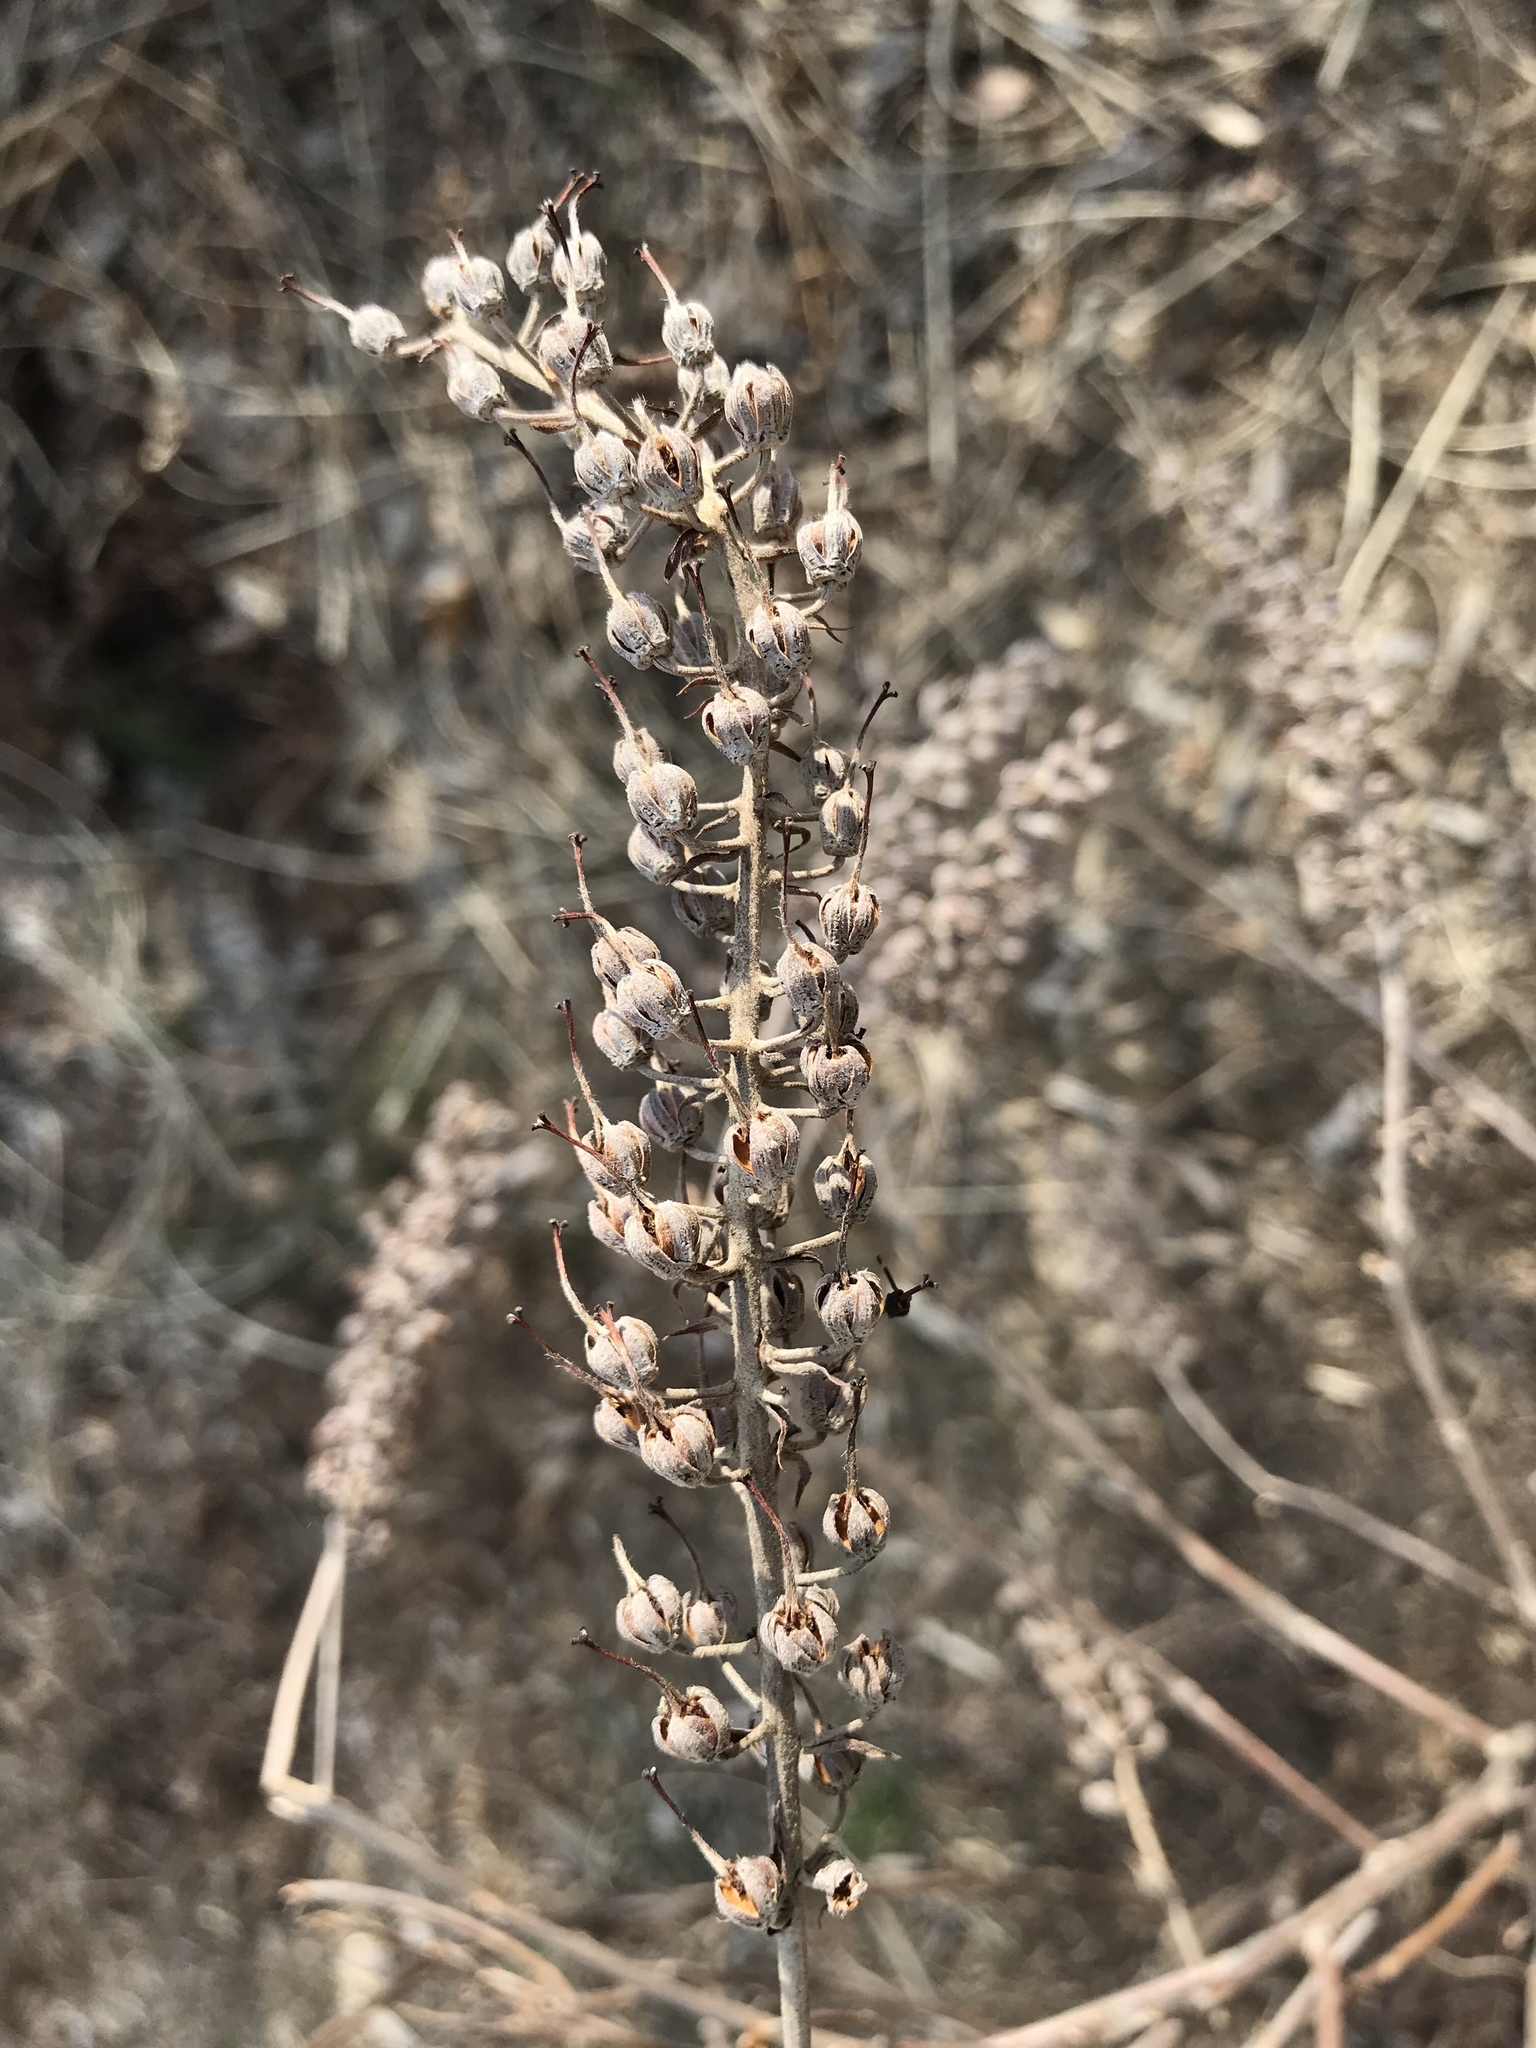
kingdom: Plantae
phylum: Tracheophyta
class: Magnoliopsida
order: Ericales
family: Clethraceae
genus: Clethra
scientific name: Clethra alnifolia
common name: Sweet pepperbush
